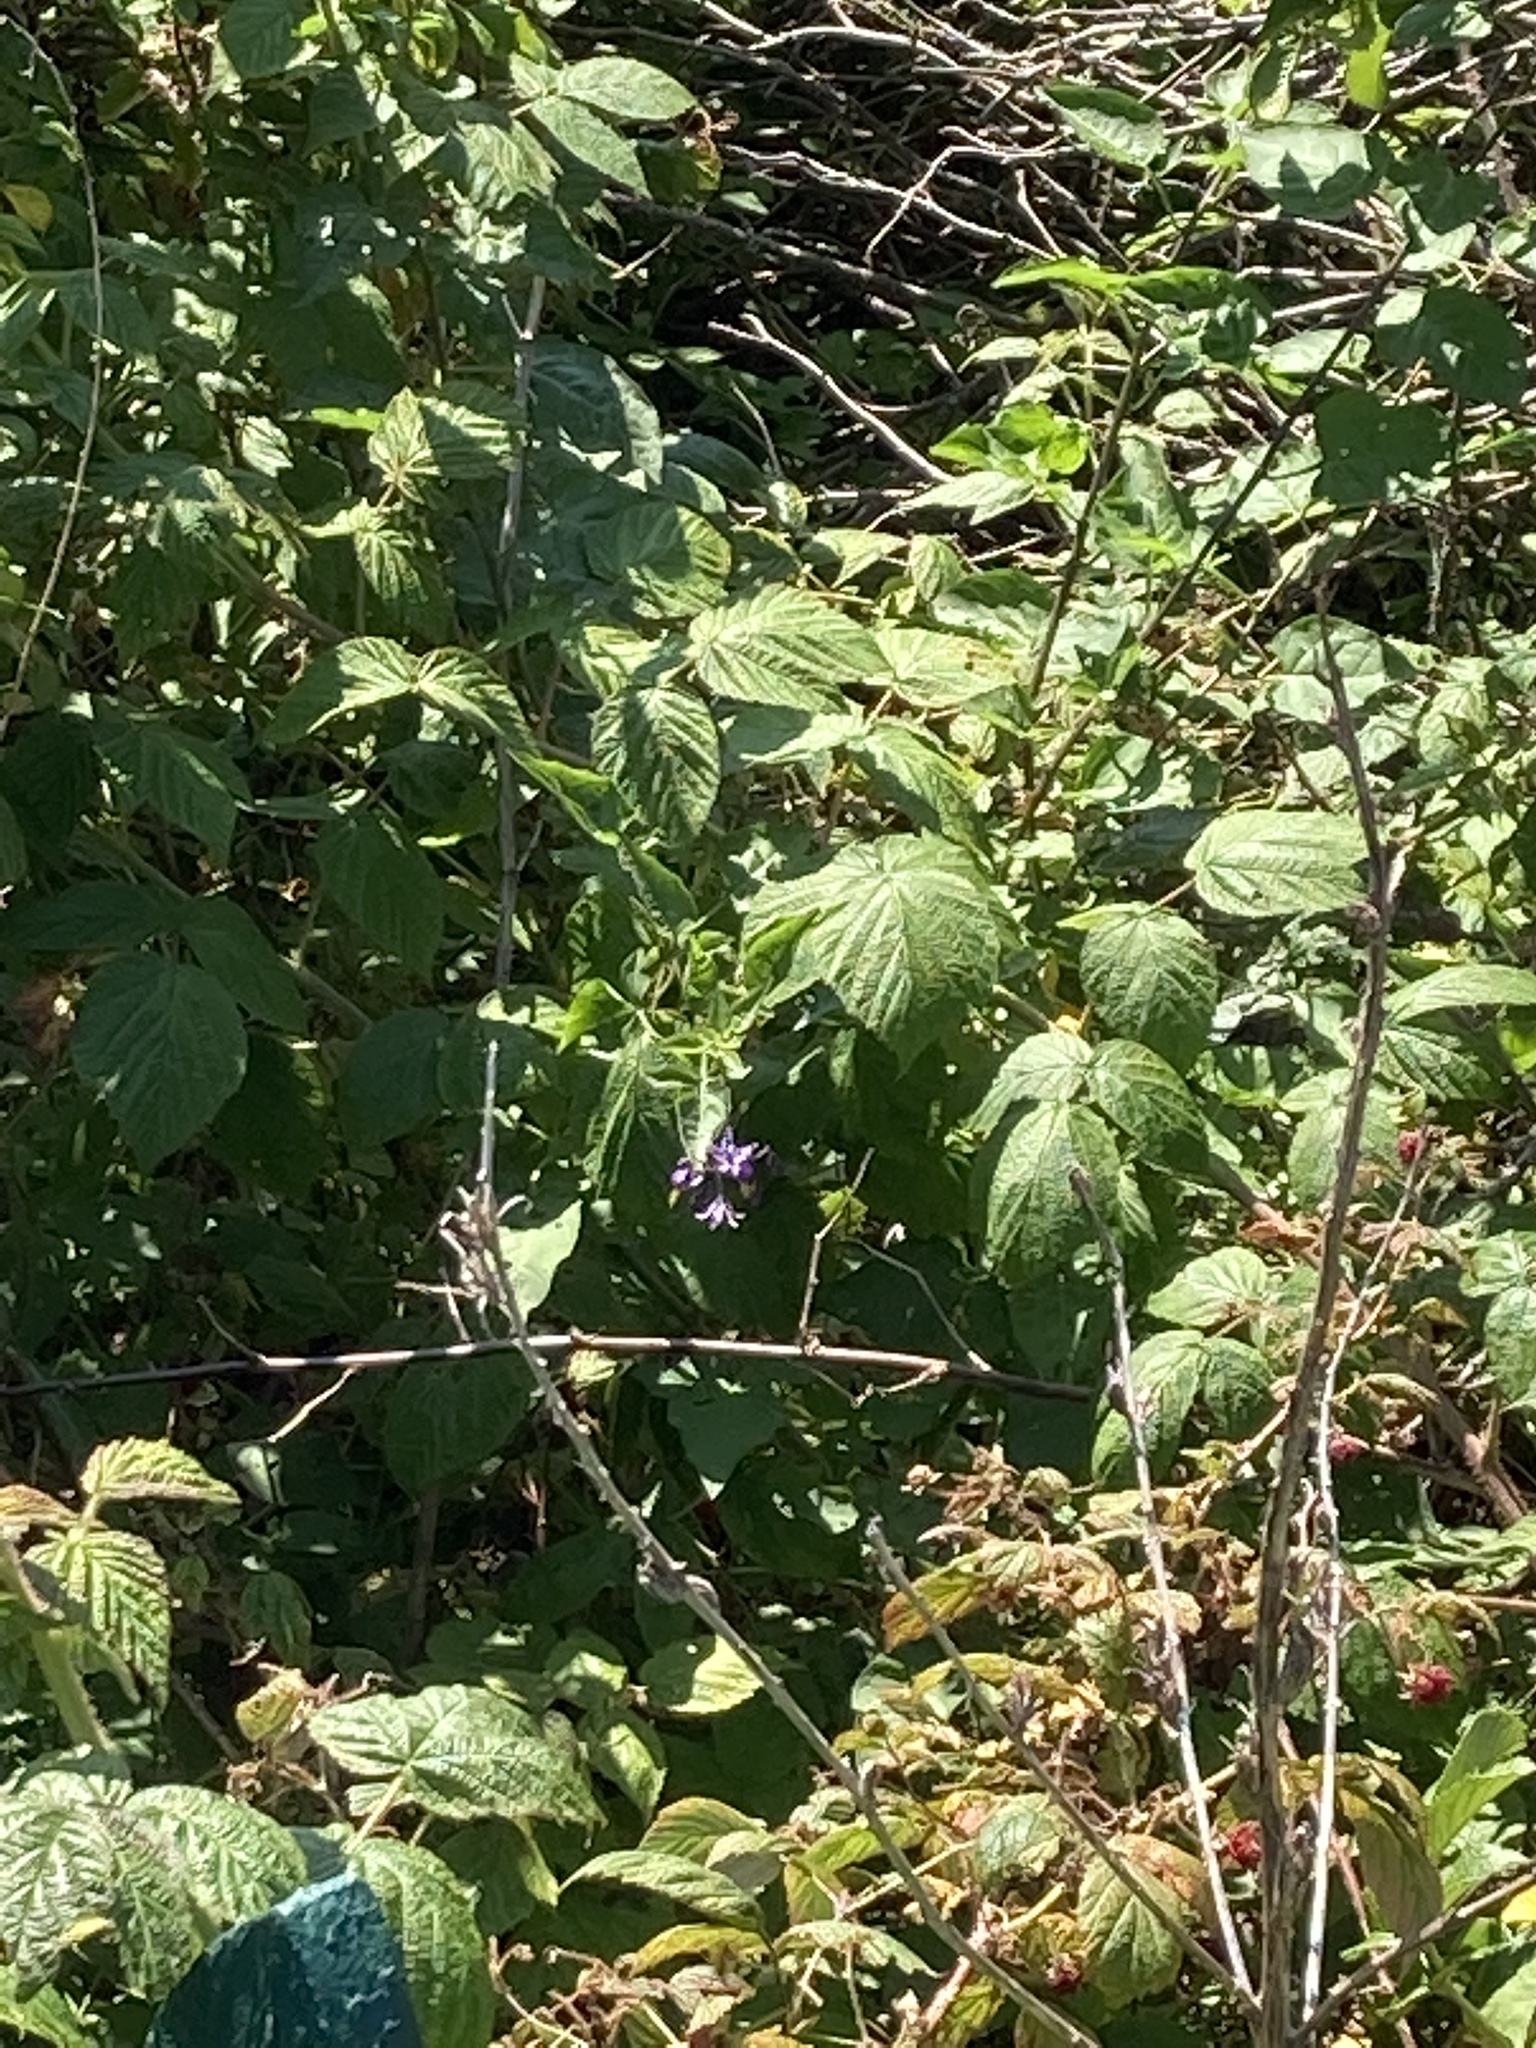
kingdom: Plantae
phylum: Tracheophyta
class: Magnoliopsida
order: Solanales
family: Solanaceae
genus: Solanum
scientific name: Solanum dulcamara
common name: Climbing nightshade
